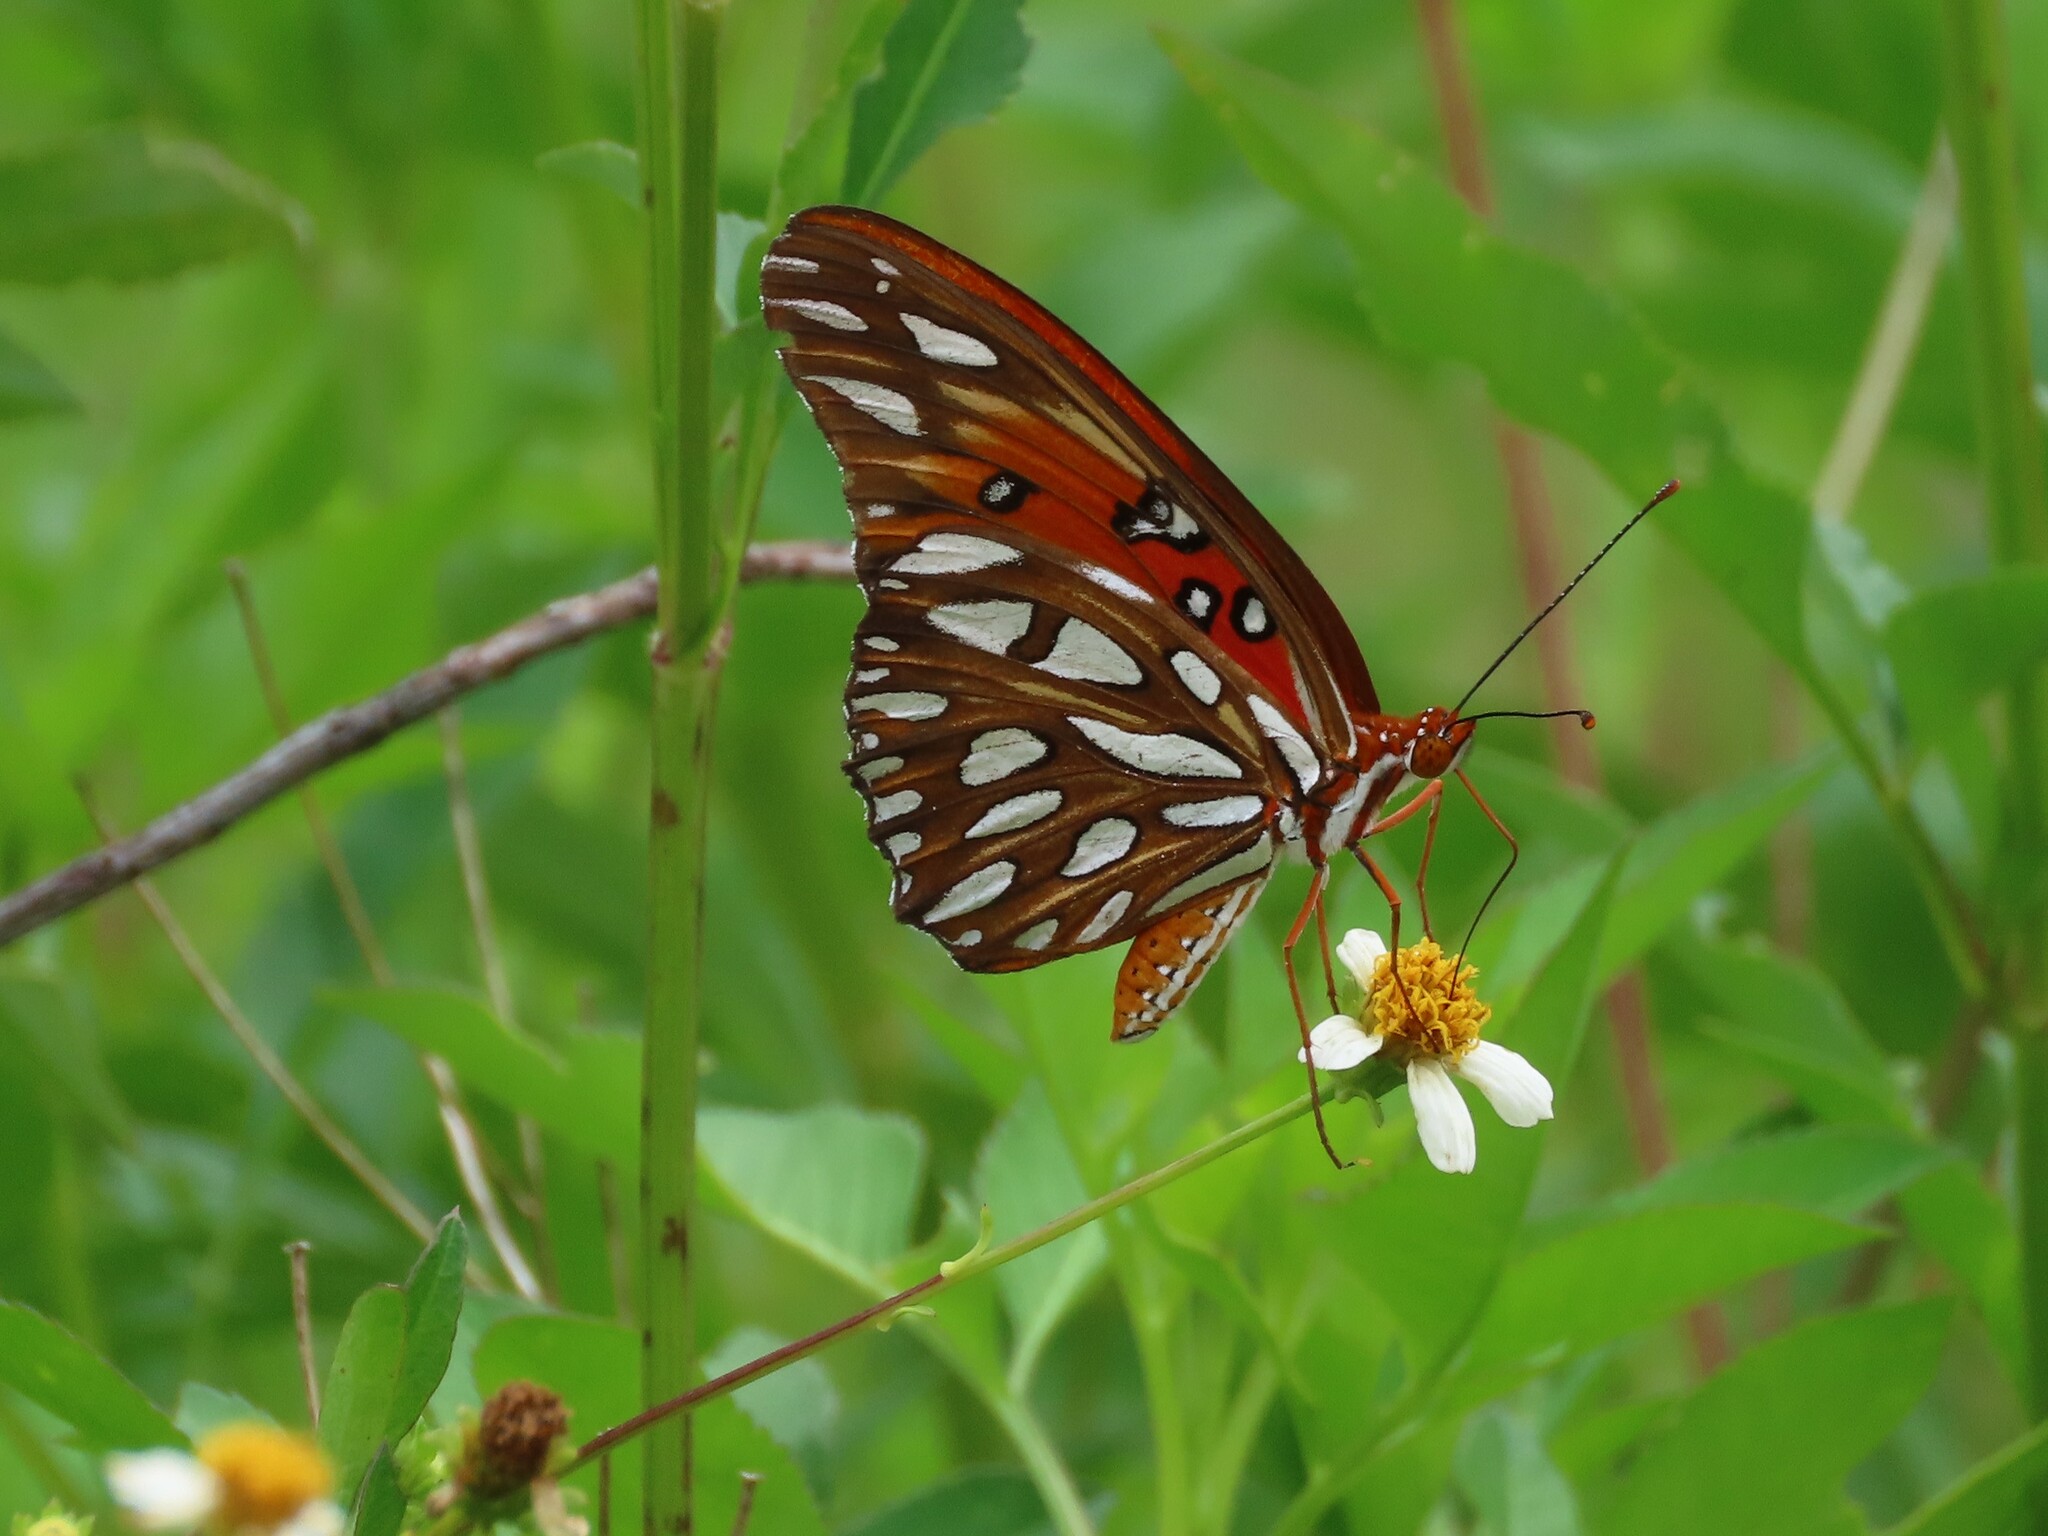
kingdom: Animalia
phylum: Arthropoda
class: Insecta
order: Lepidoptera
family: Nymphalidae
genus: Dione
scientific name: Dione vanillae
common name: Gulf fritillary
